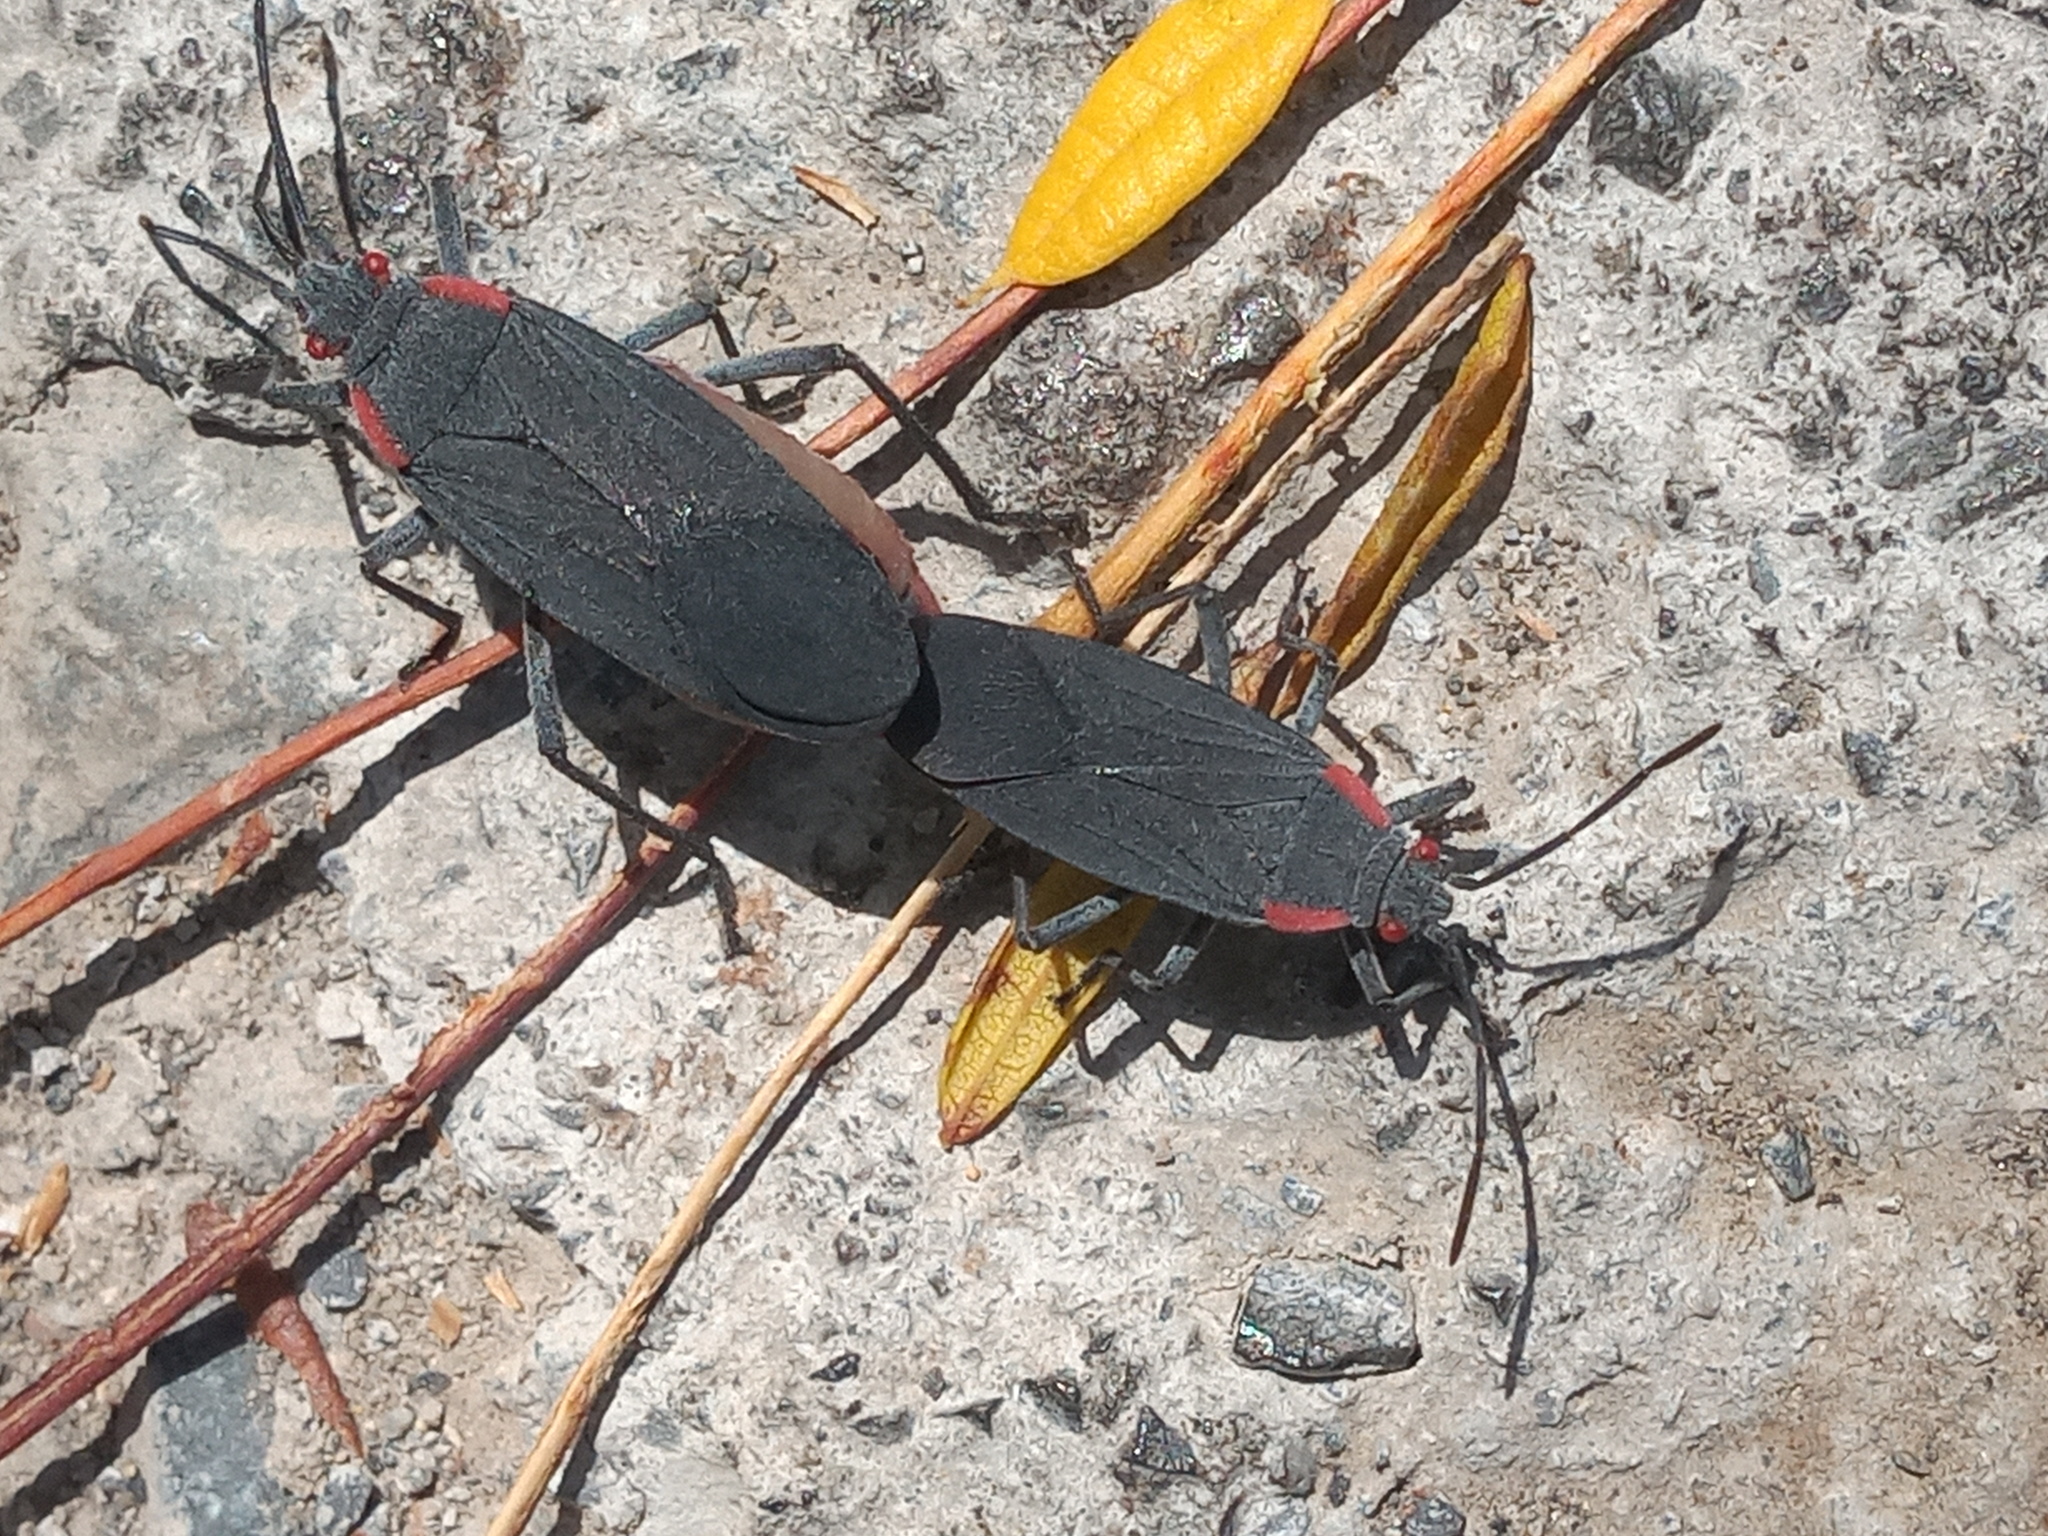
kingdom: Animalia
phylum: Arthropoda
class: Insecta
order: Hemiptera
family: Rhopalidae
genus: Jadera
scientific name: Jadera haematoloma
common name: Red-shouldered bug
